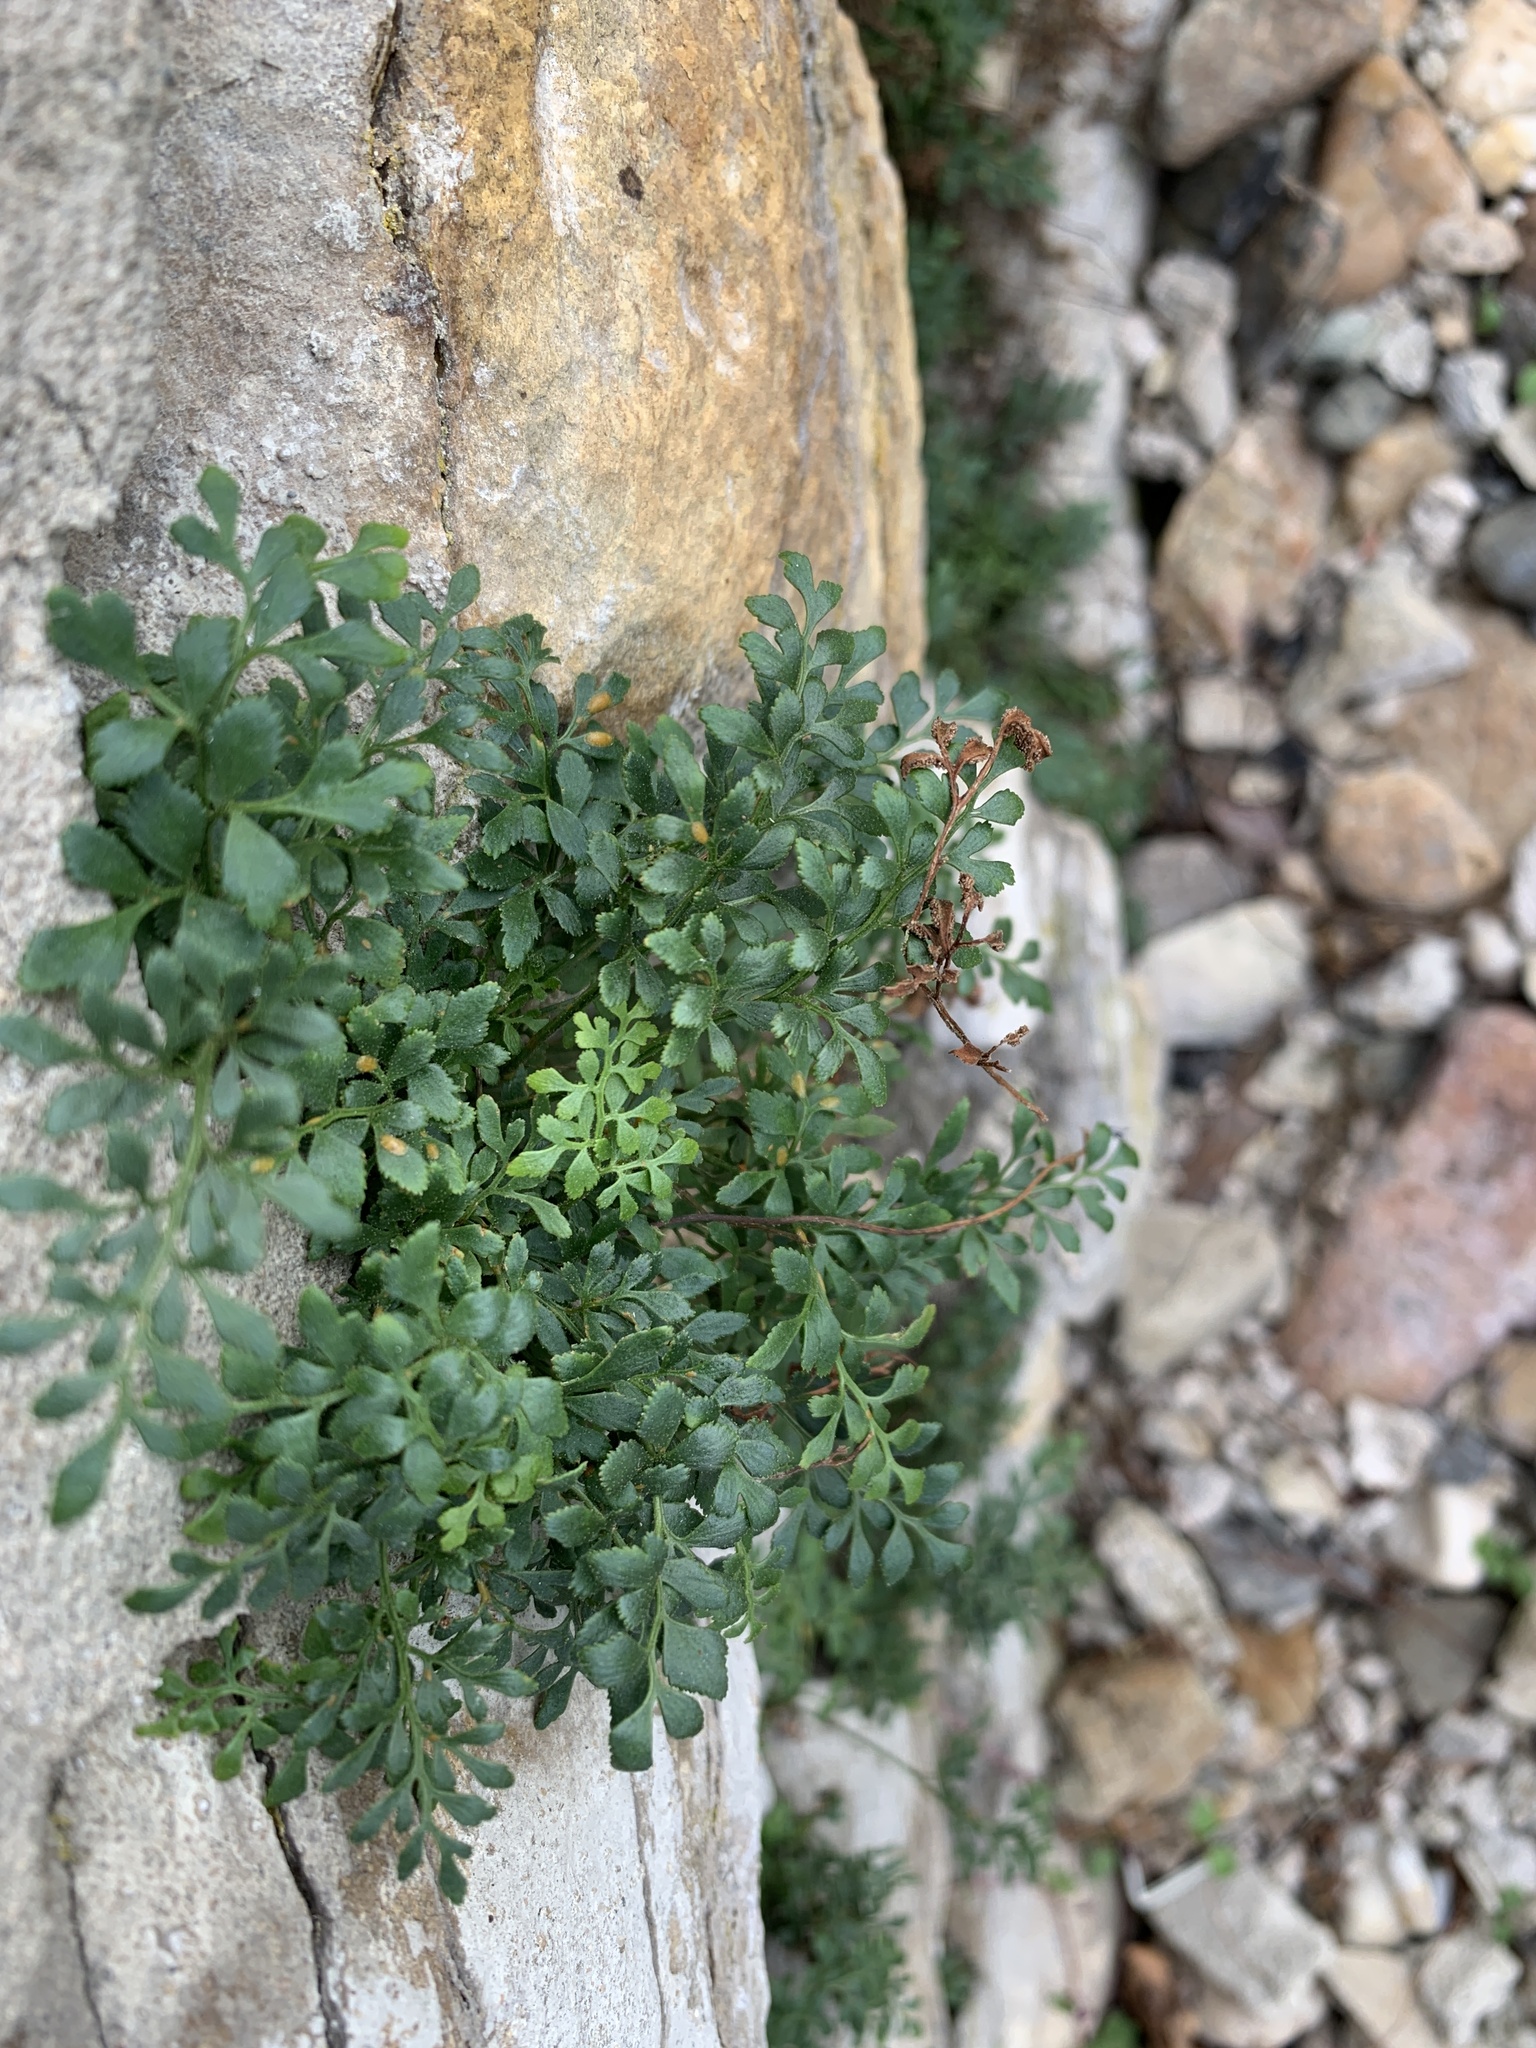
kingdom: Plantae
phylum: Tracheophyta
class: Polypodiopsida
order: Polypodiales
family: Aspleniaceae
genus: Asplenium
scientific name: Asplenium ruta-muraria
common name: Wall-rue
